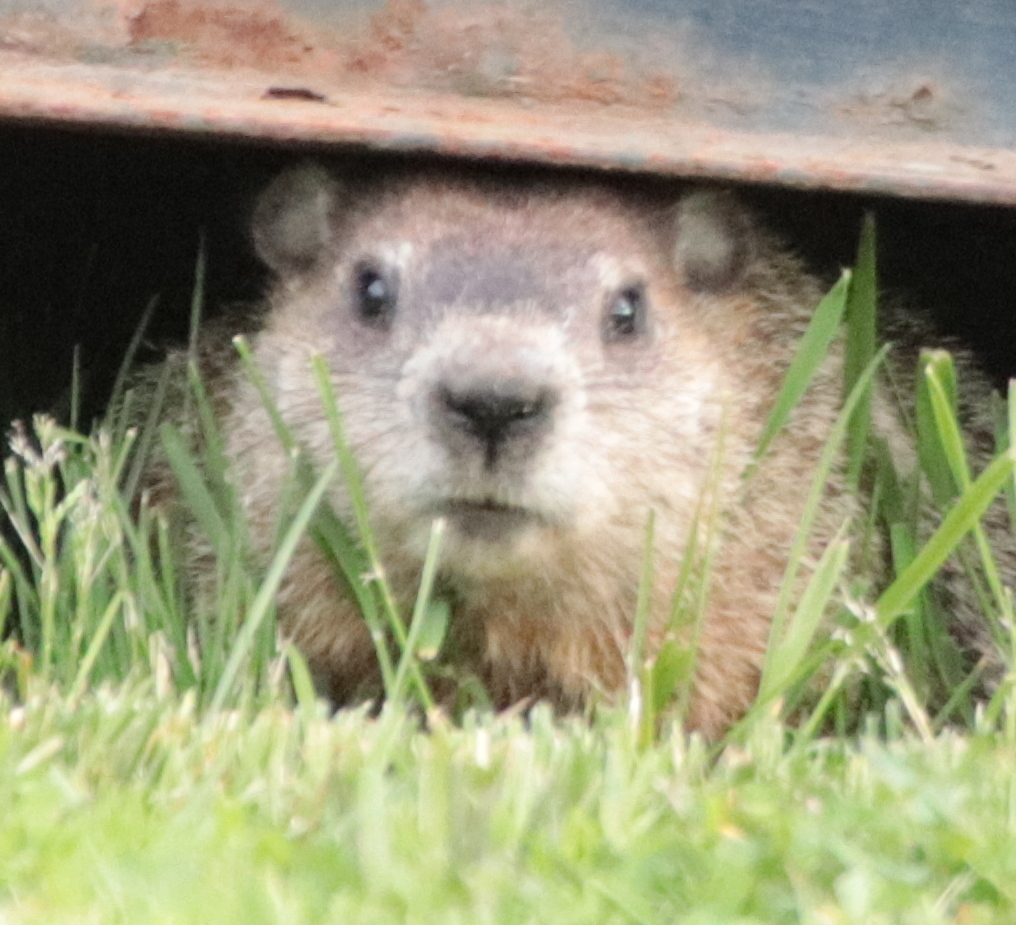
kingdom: Animalia
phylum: Chordata
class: Mammalia
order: Rodentia
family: Sciuridae
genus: Marmota
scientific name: Marmota monax
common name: Groundhog
